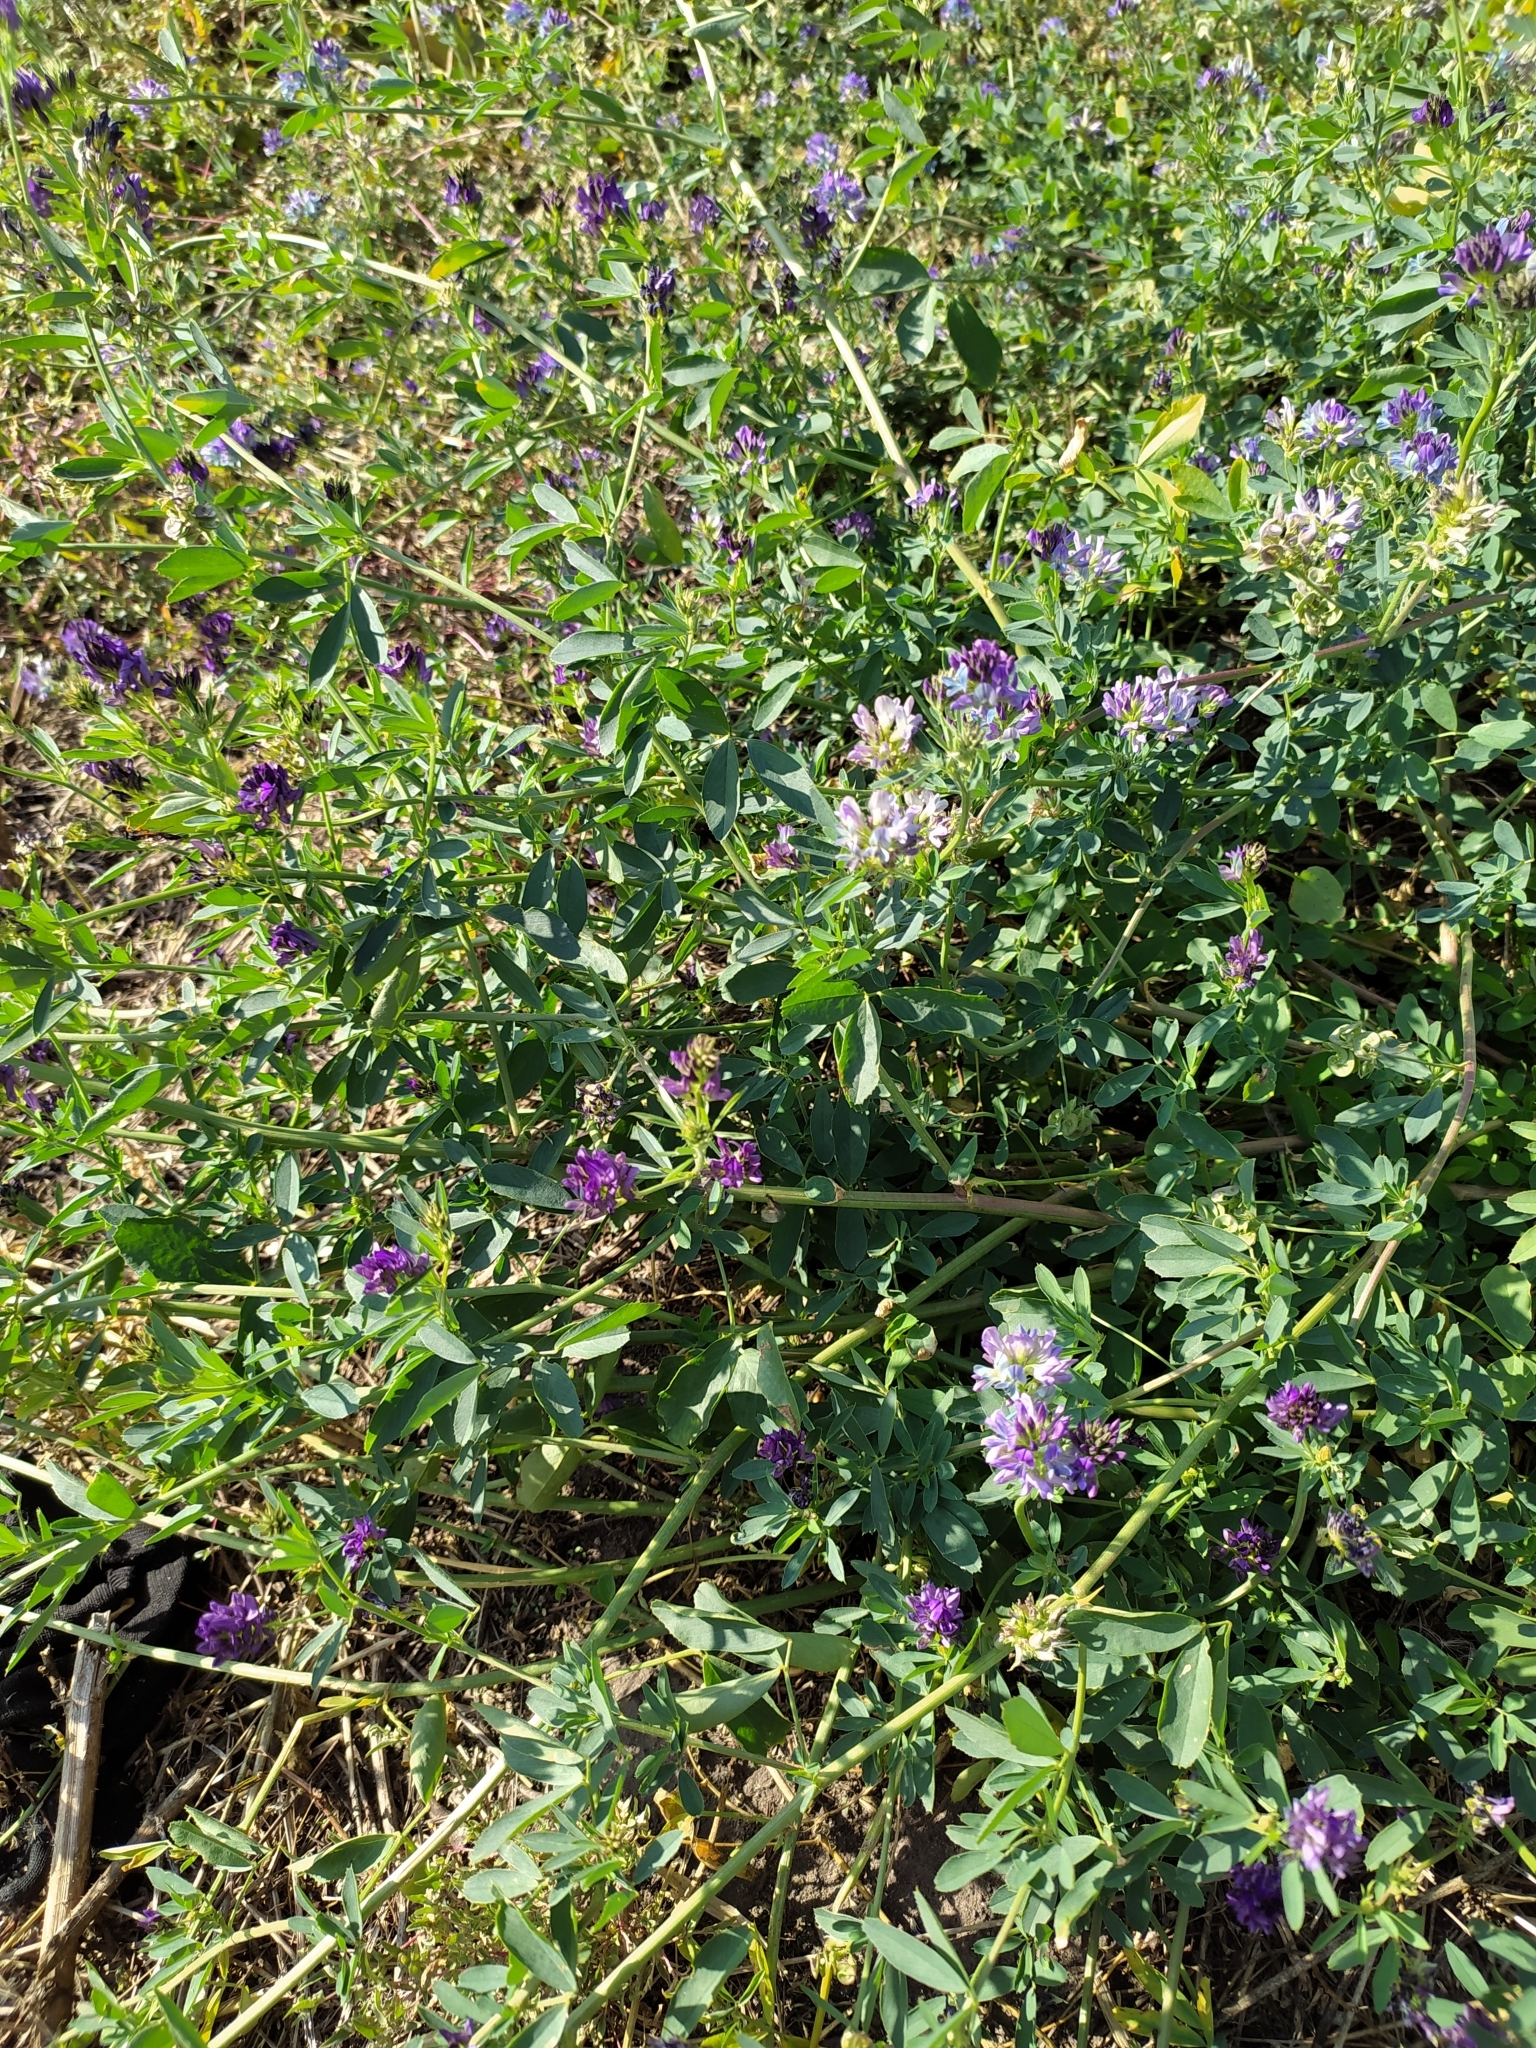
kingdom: Plantae
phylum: Tracheophyta
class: Magnoliopsida
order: Fabales
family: Fabaceae
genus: Medicago
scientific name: Medicago sativa
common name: Alfalfa
